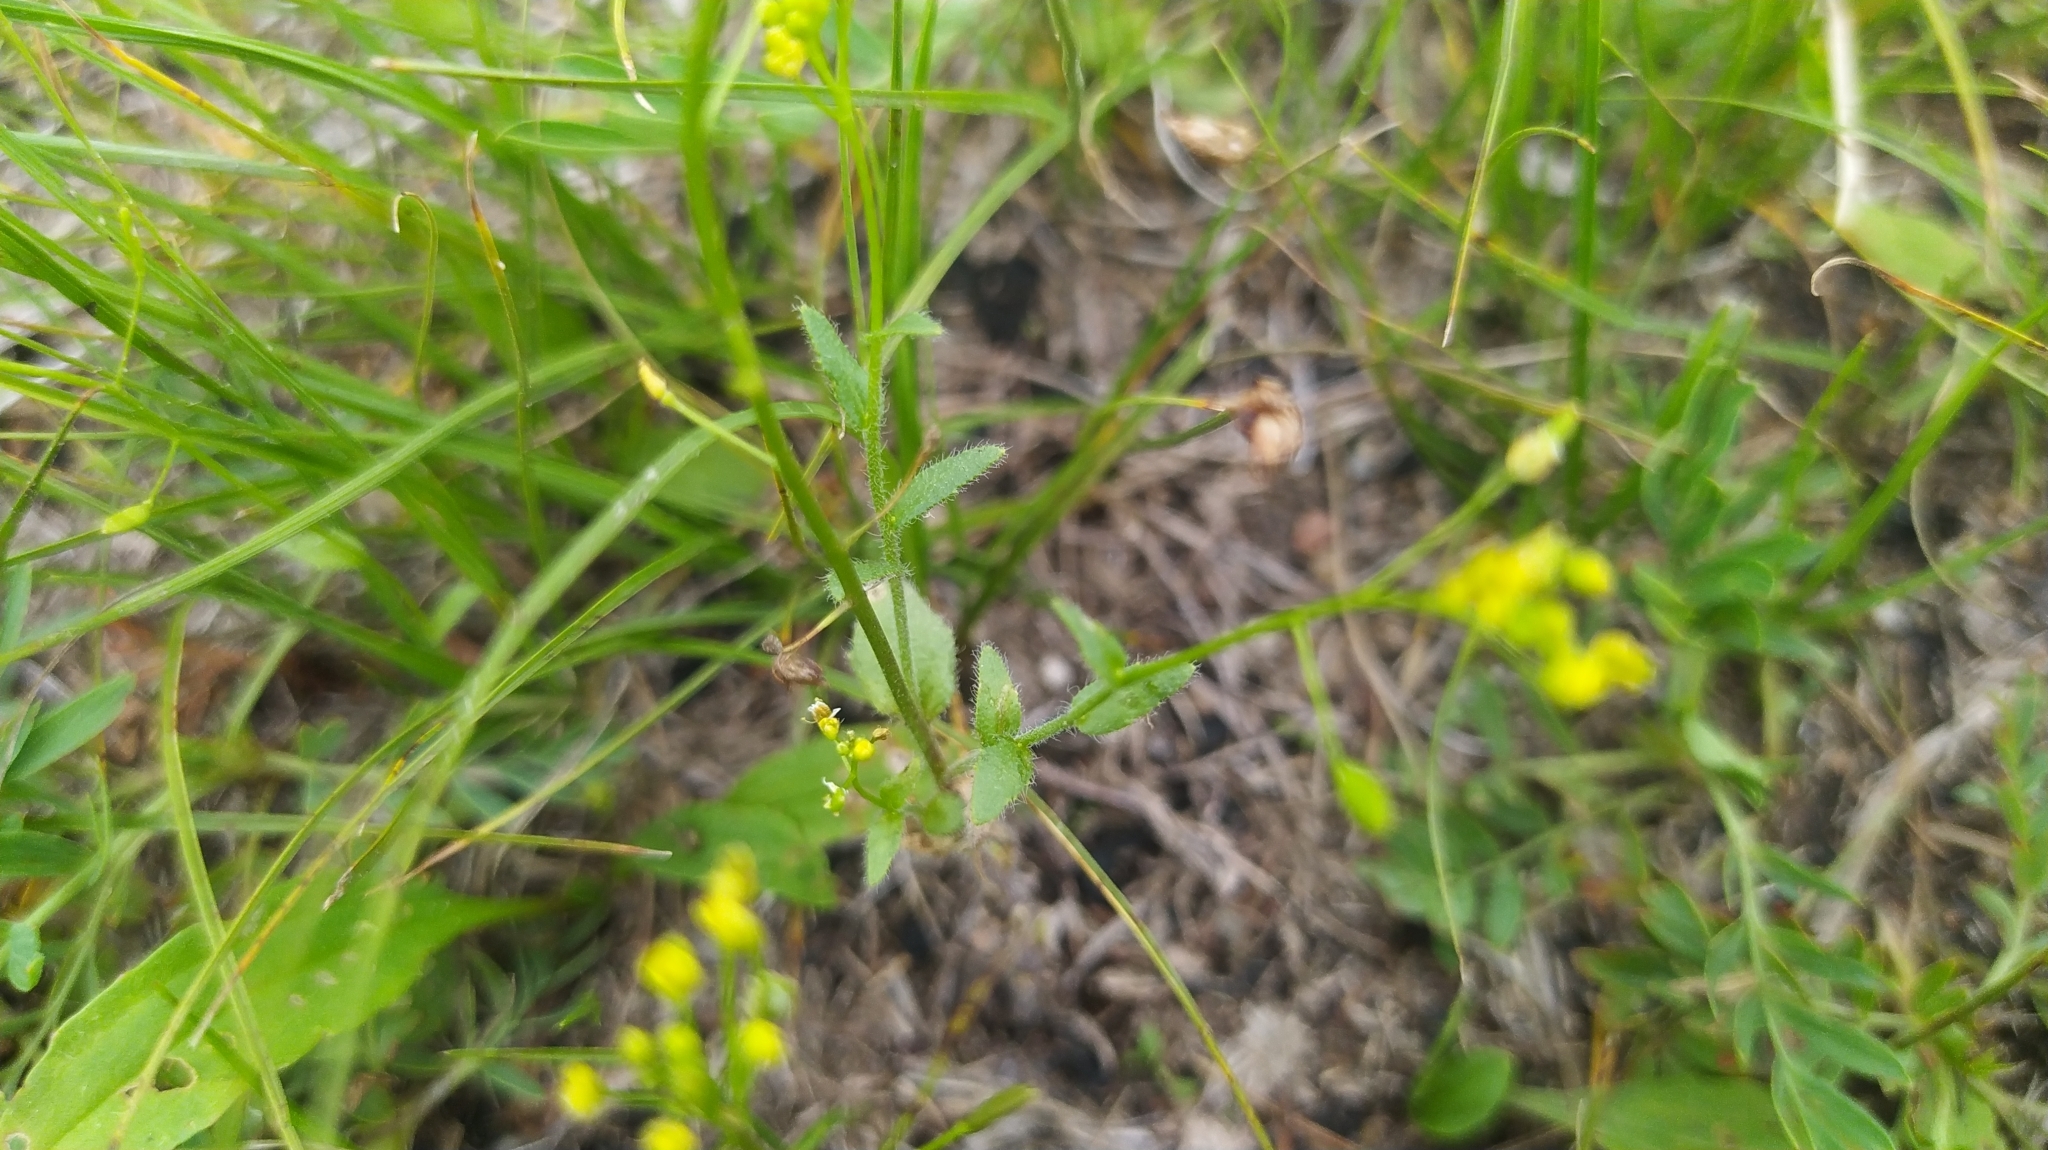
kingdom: Plantae
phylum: Tracheophyta
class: Magnoliopsida
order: Brassicales
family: Brassicaceae
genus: Draba
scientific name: Draba nemorosa
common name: Wood whitlow-grass
